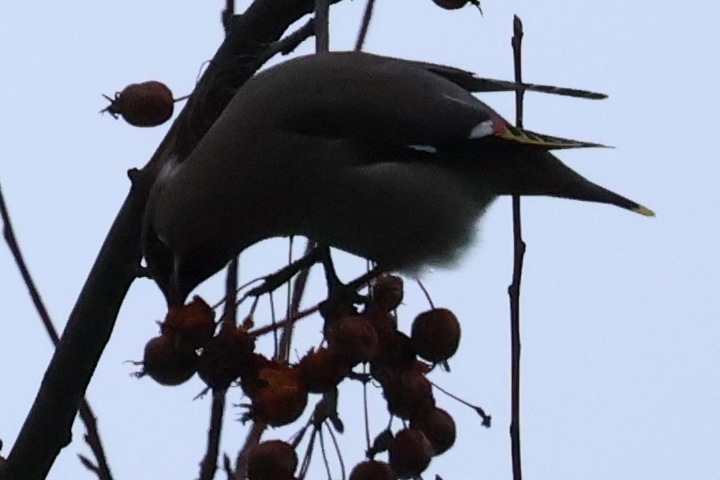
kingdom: Animalia
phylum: Chordata
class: Aves
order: Passeriformes
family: Bombycillidae
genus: Bombycilla
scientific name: Bombycilla garrulus
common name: Bohemian waxwing
